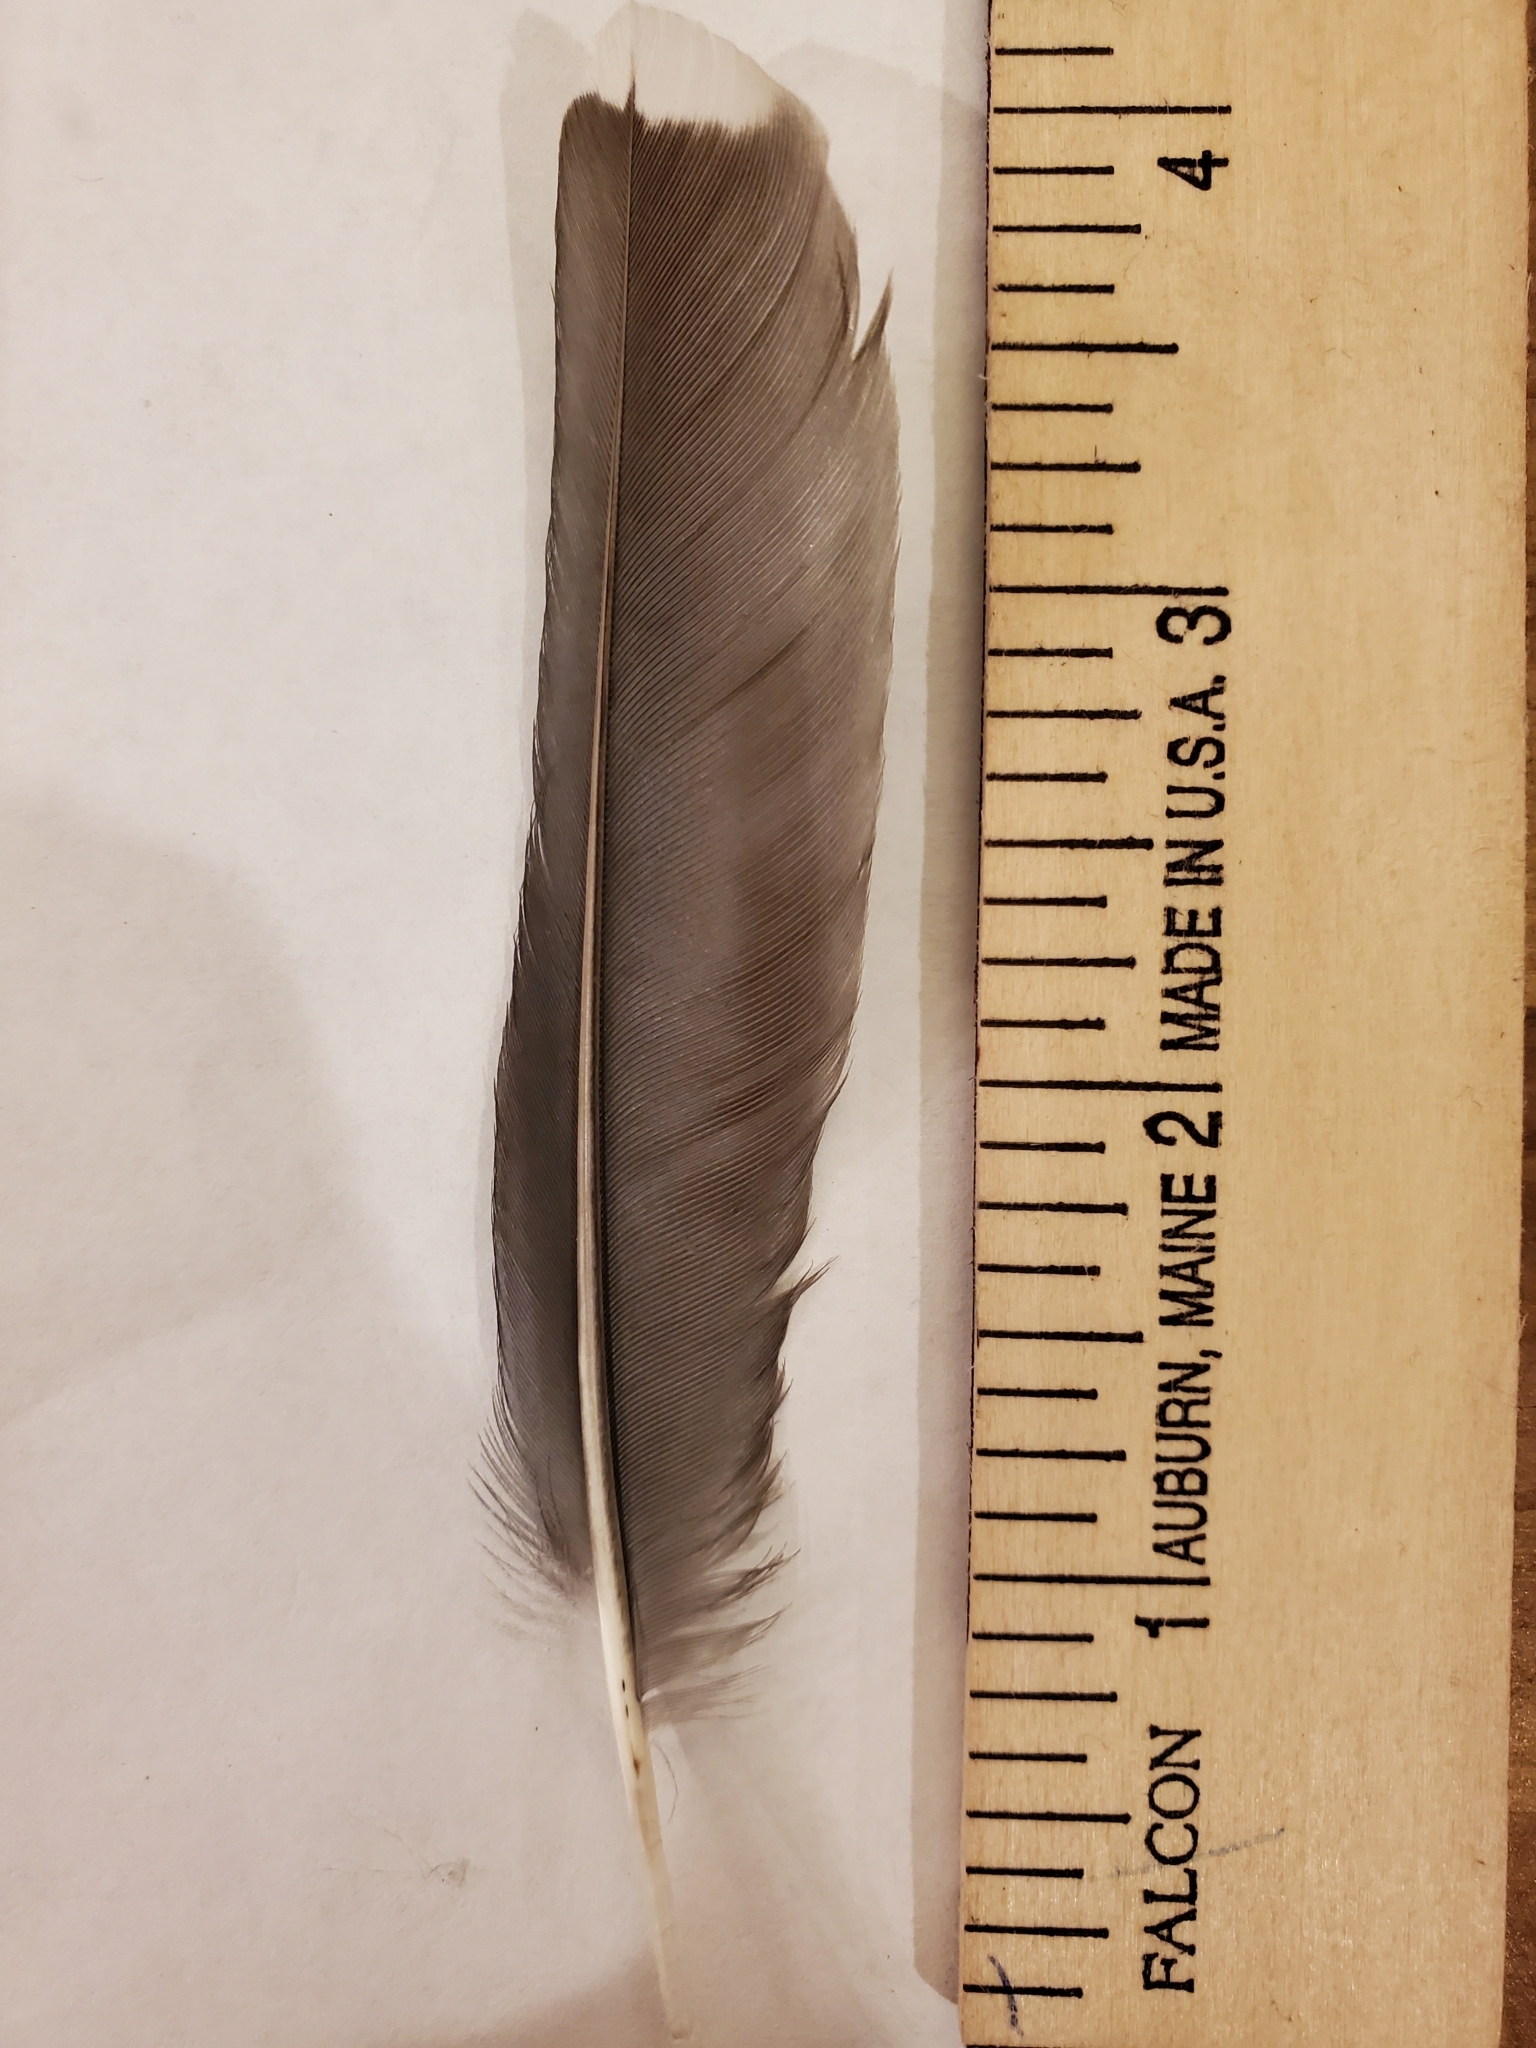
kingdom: Animalia
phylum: Chordata
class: Aves
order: Passeriformes
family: Corvidae
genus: Cyanocitta
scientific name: Cyanocitta cristata
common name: Blue jay
